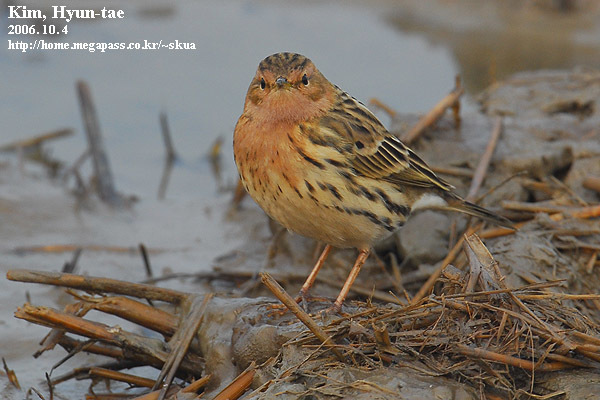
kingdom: Animalia
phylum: Chordata
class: Aves
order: Passeriformes
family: Motacillidae
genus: Anthus
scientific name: Anthus cervinus
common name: Red-throated pipit
